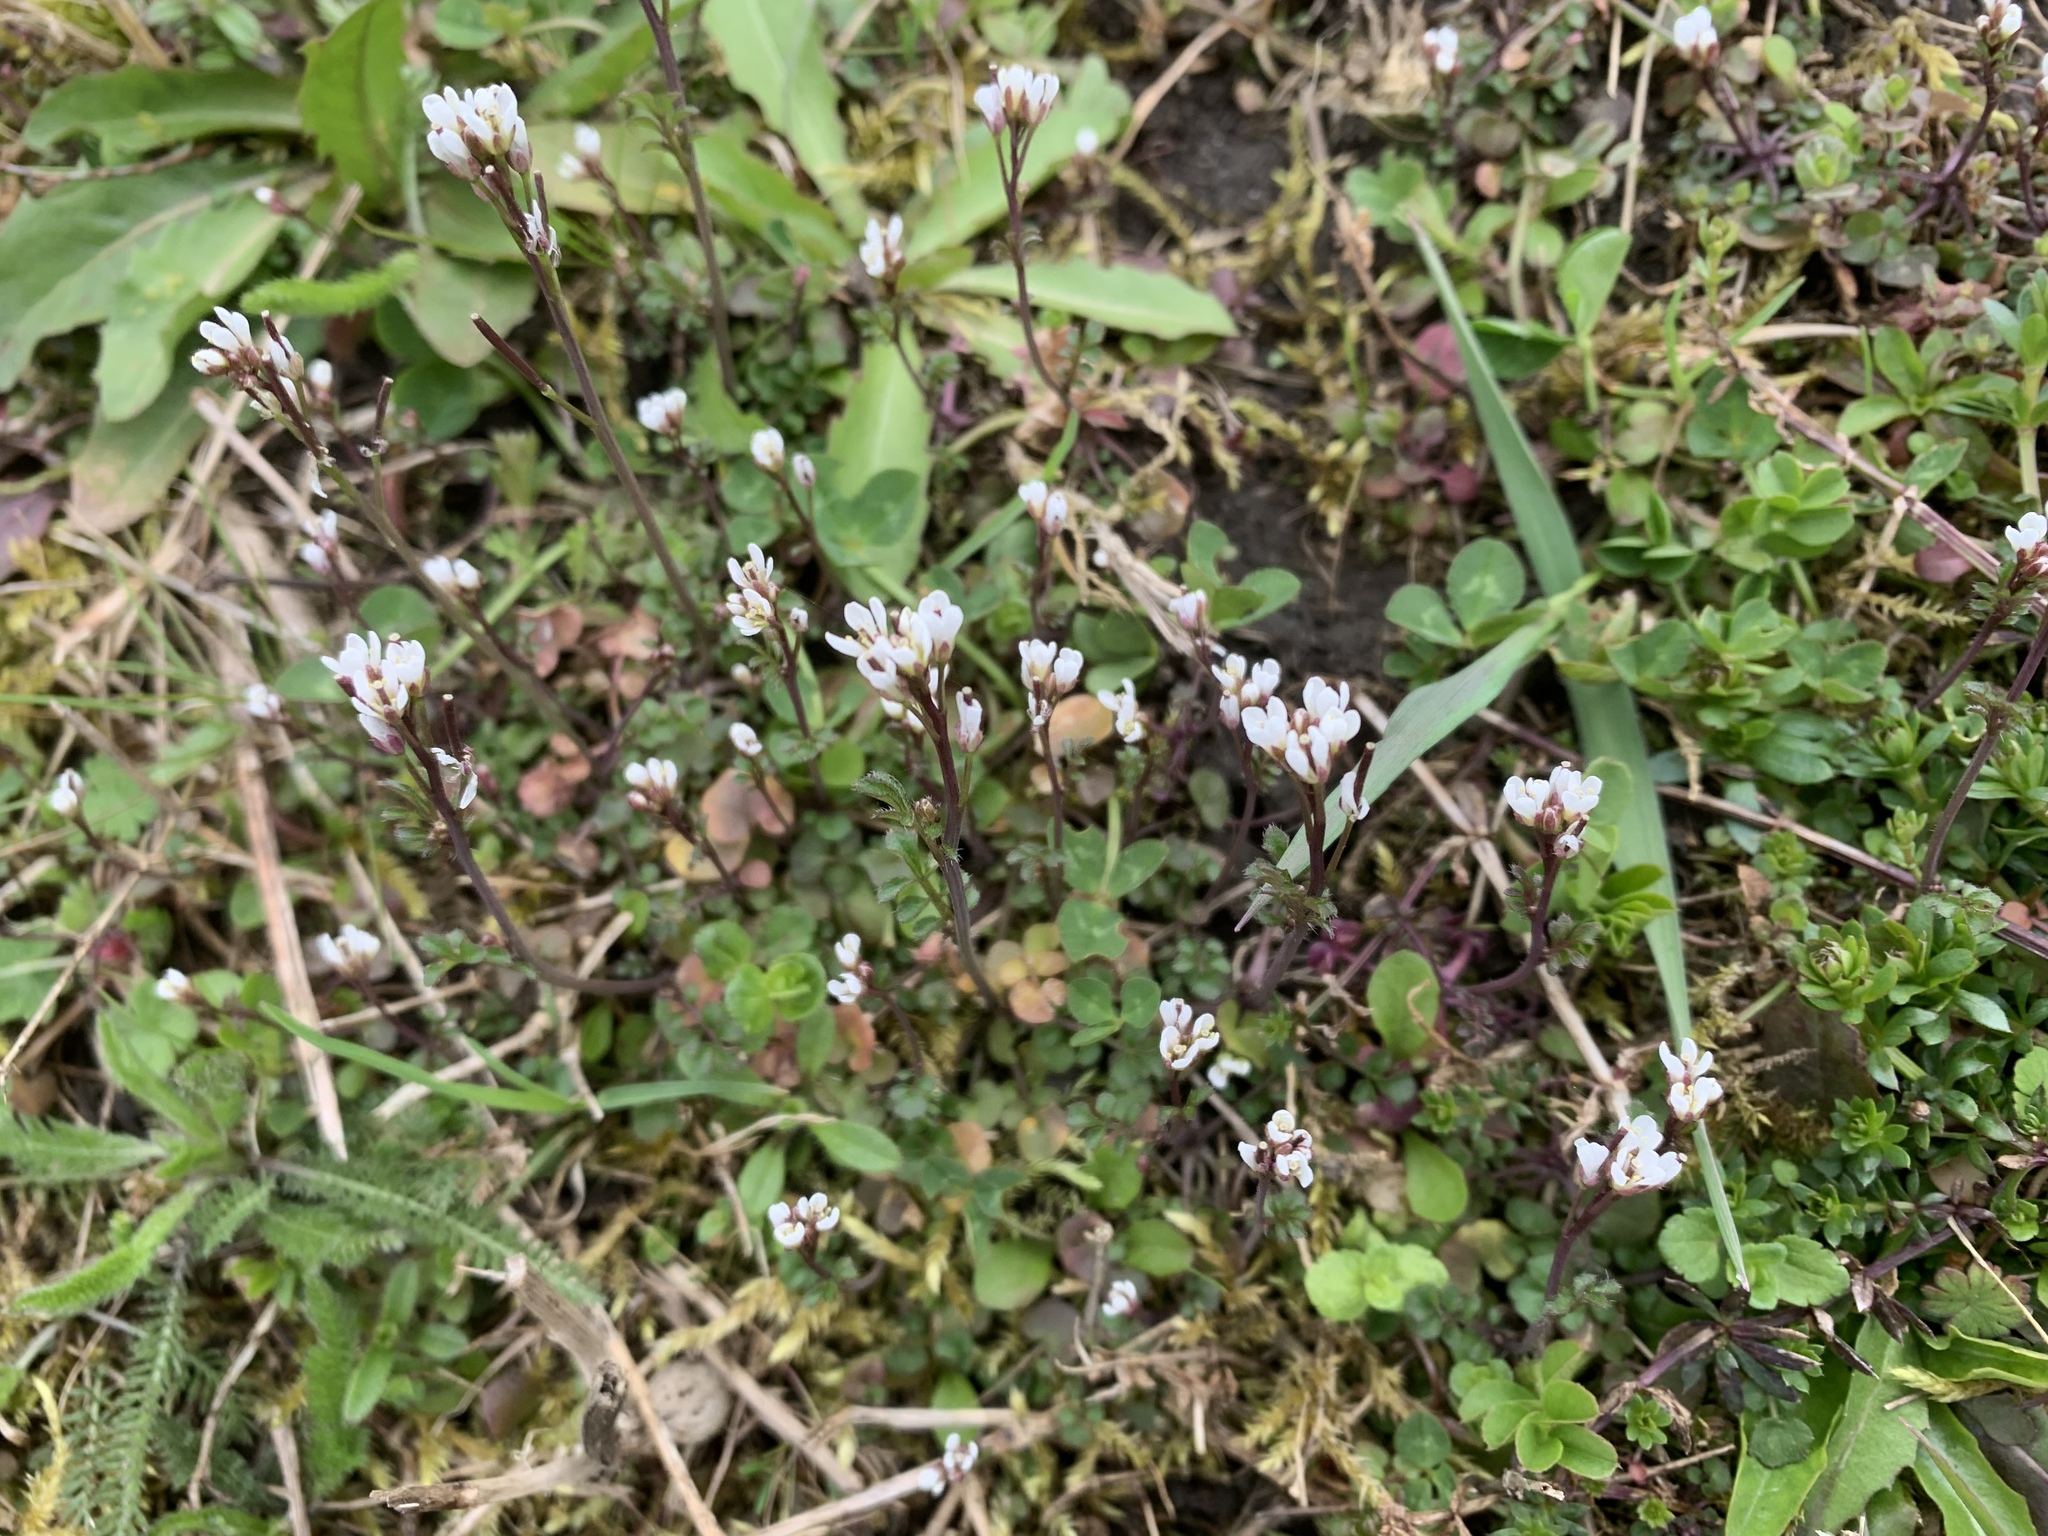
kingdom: Plantae
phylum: Tracheophyta
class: Magnoliopsida
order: Brassicales
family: Brassicaceae
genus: Cardamine
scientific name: Cardamine hirsuta
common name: Hairy bittercress
